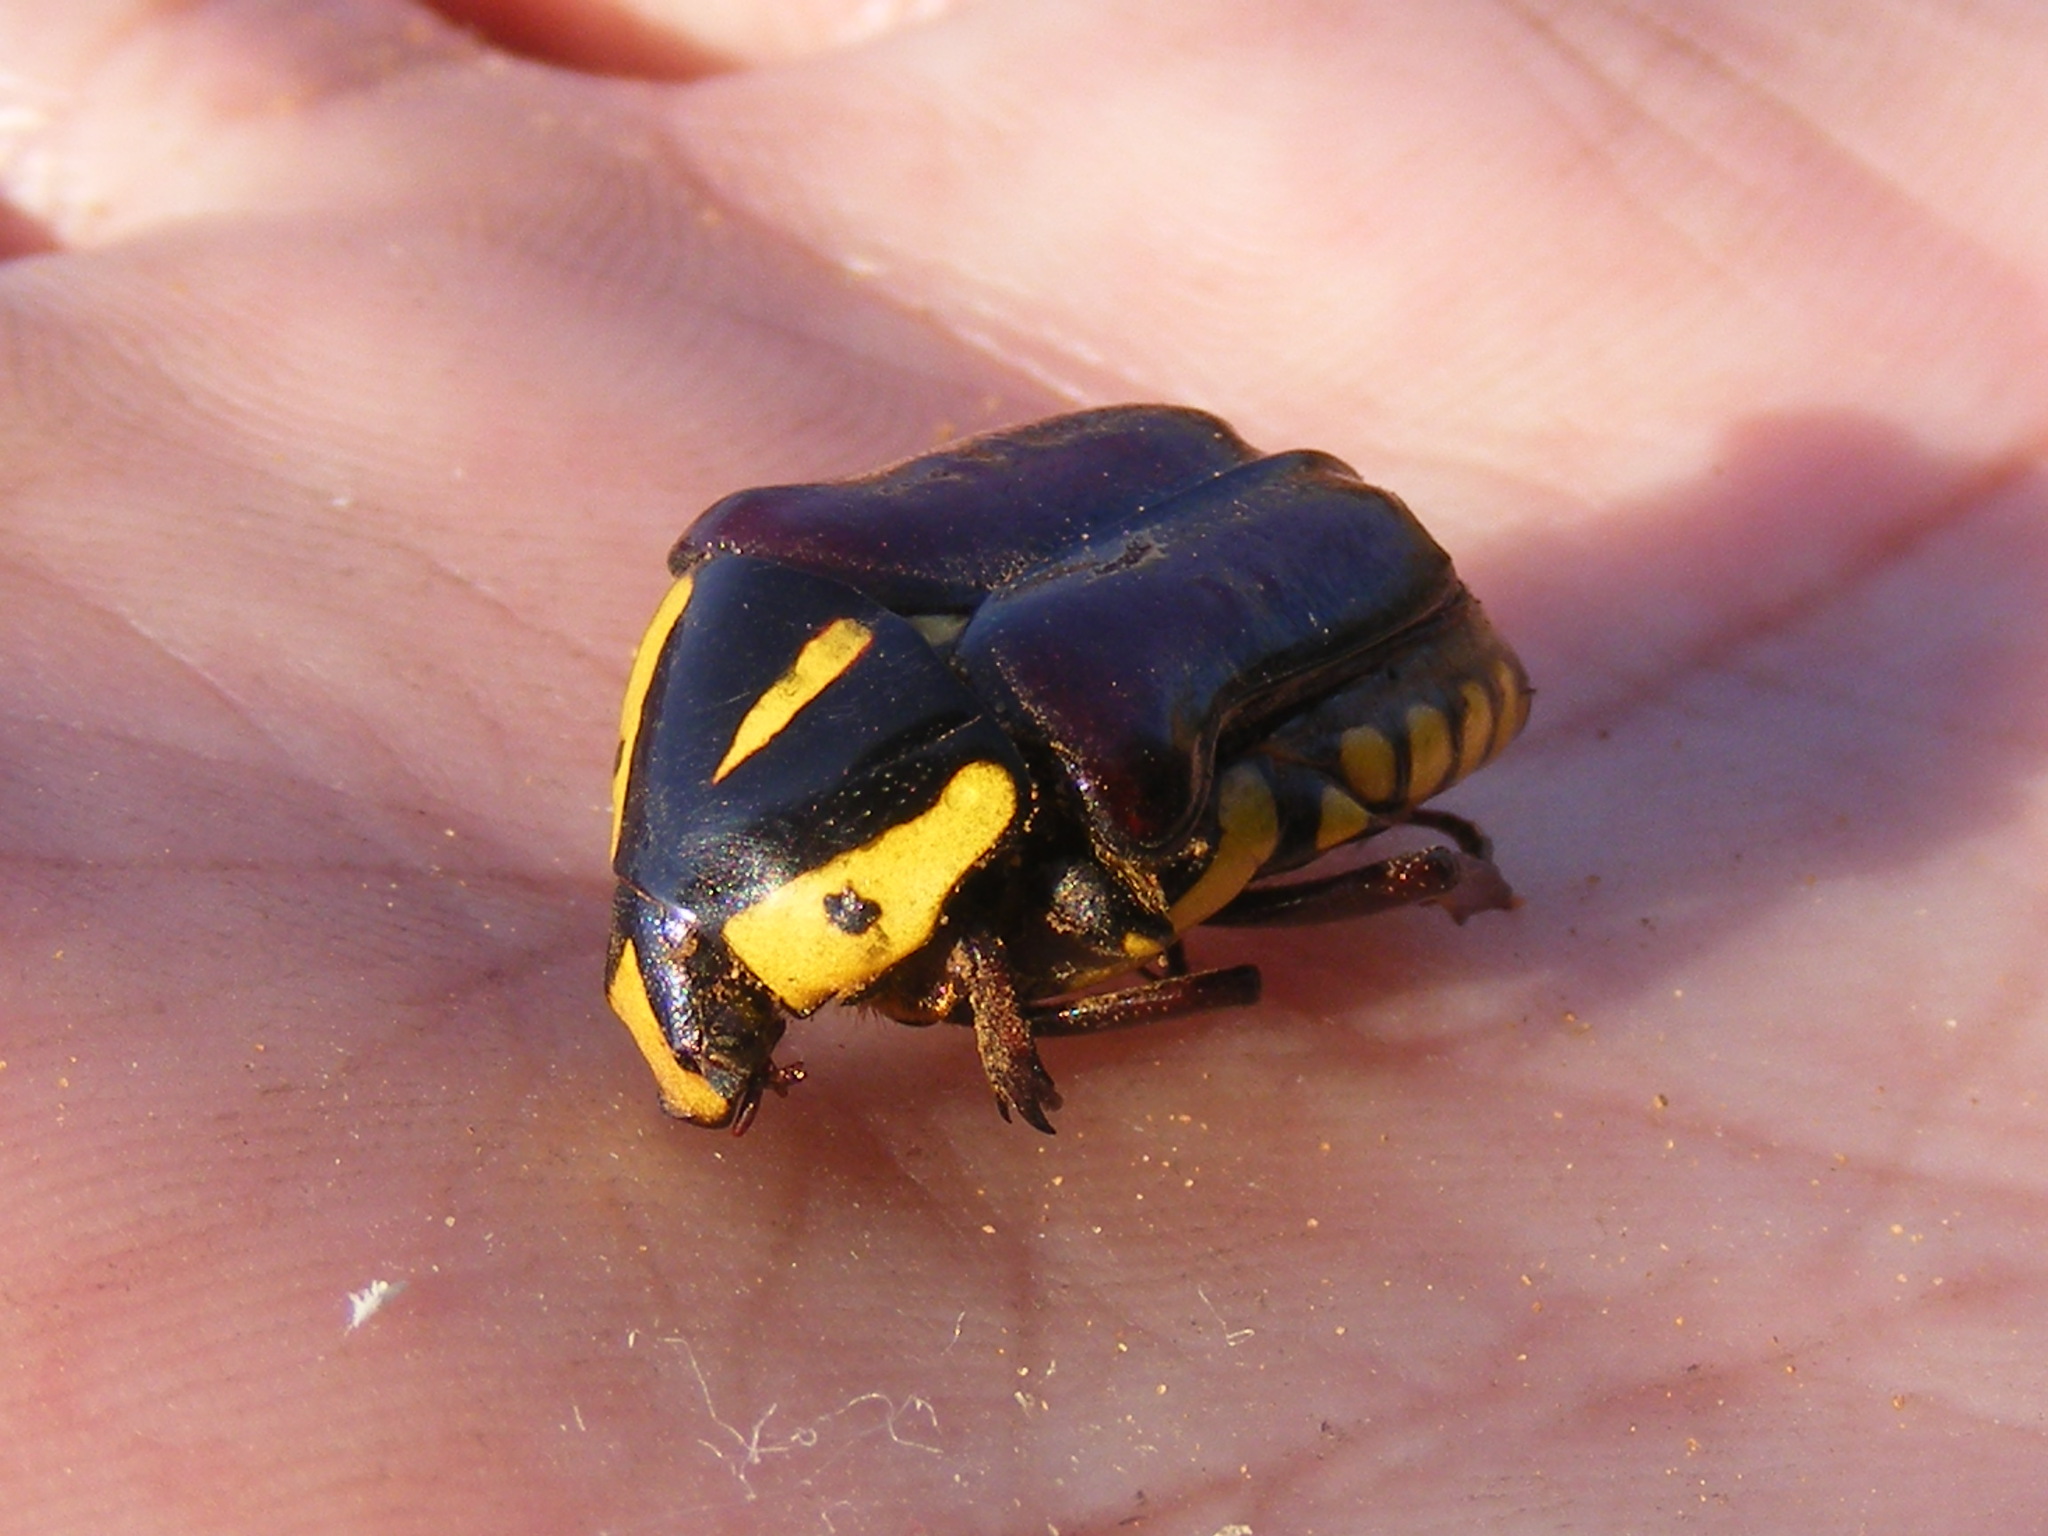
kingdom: Animalia
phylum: Arthropoda
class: Insecta
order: Coleoptera
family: Scarabaeidae
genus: Campsiura
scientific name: Campsiura cognata
